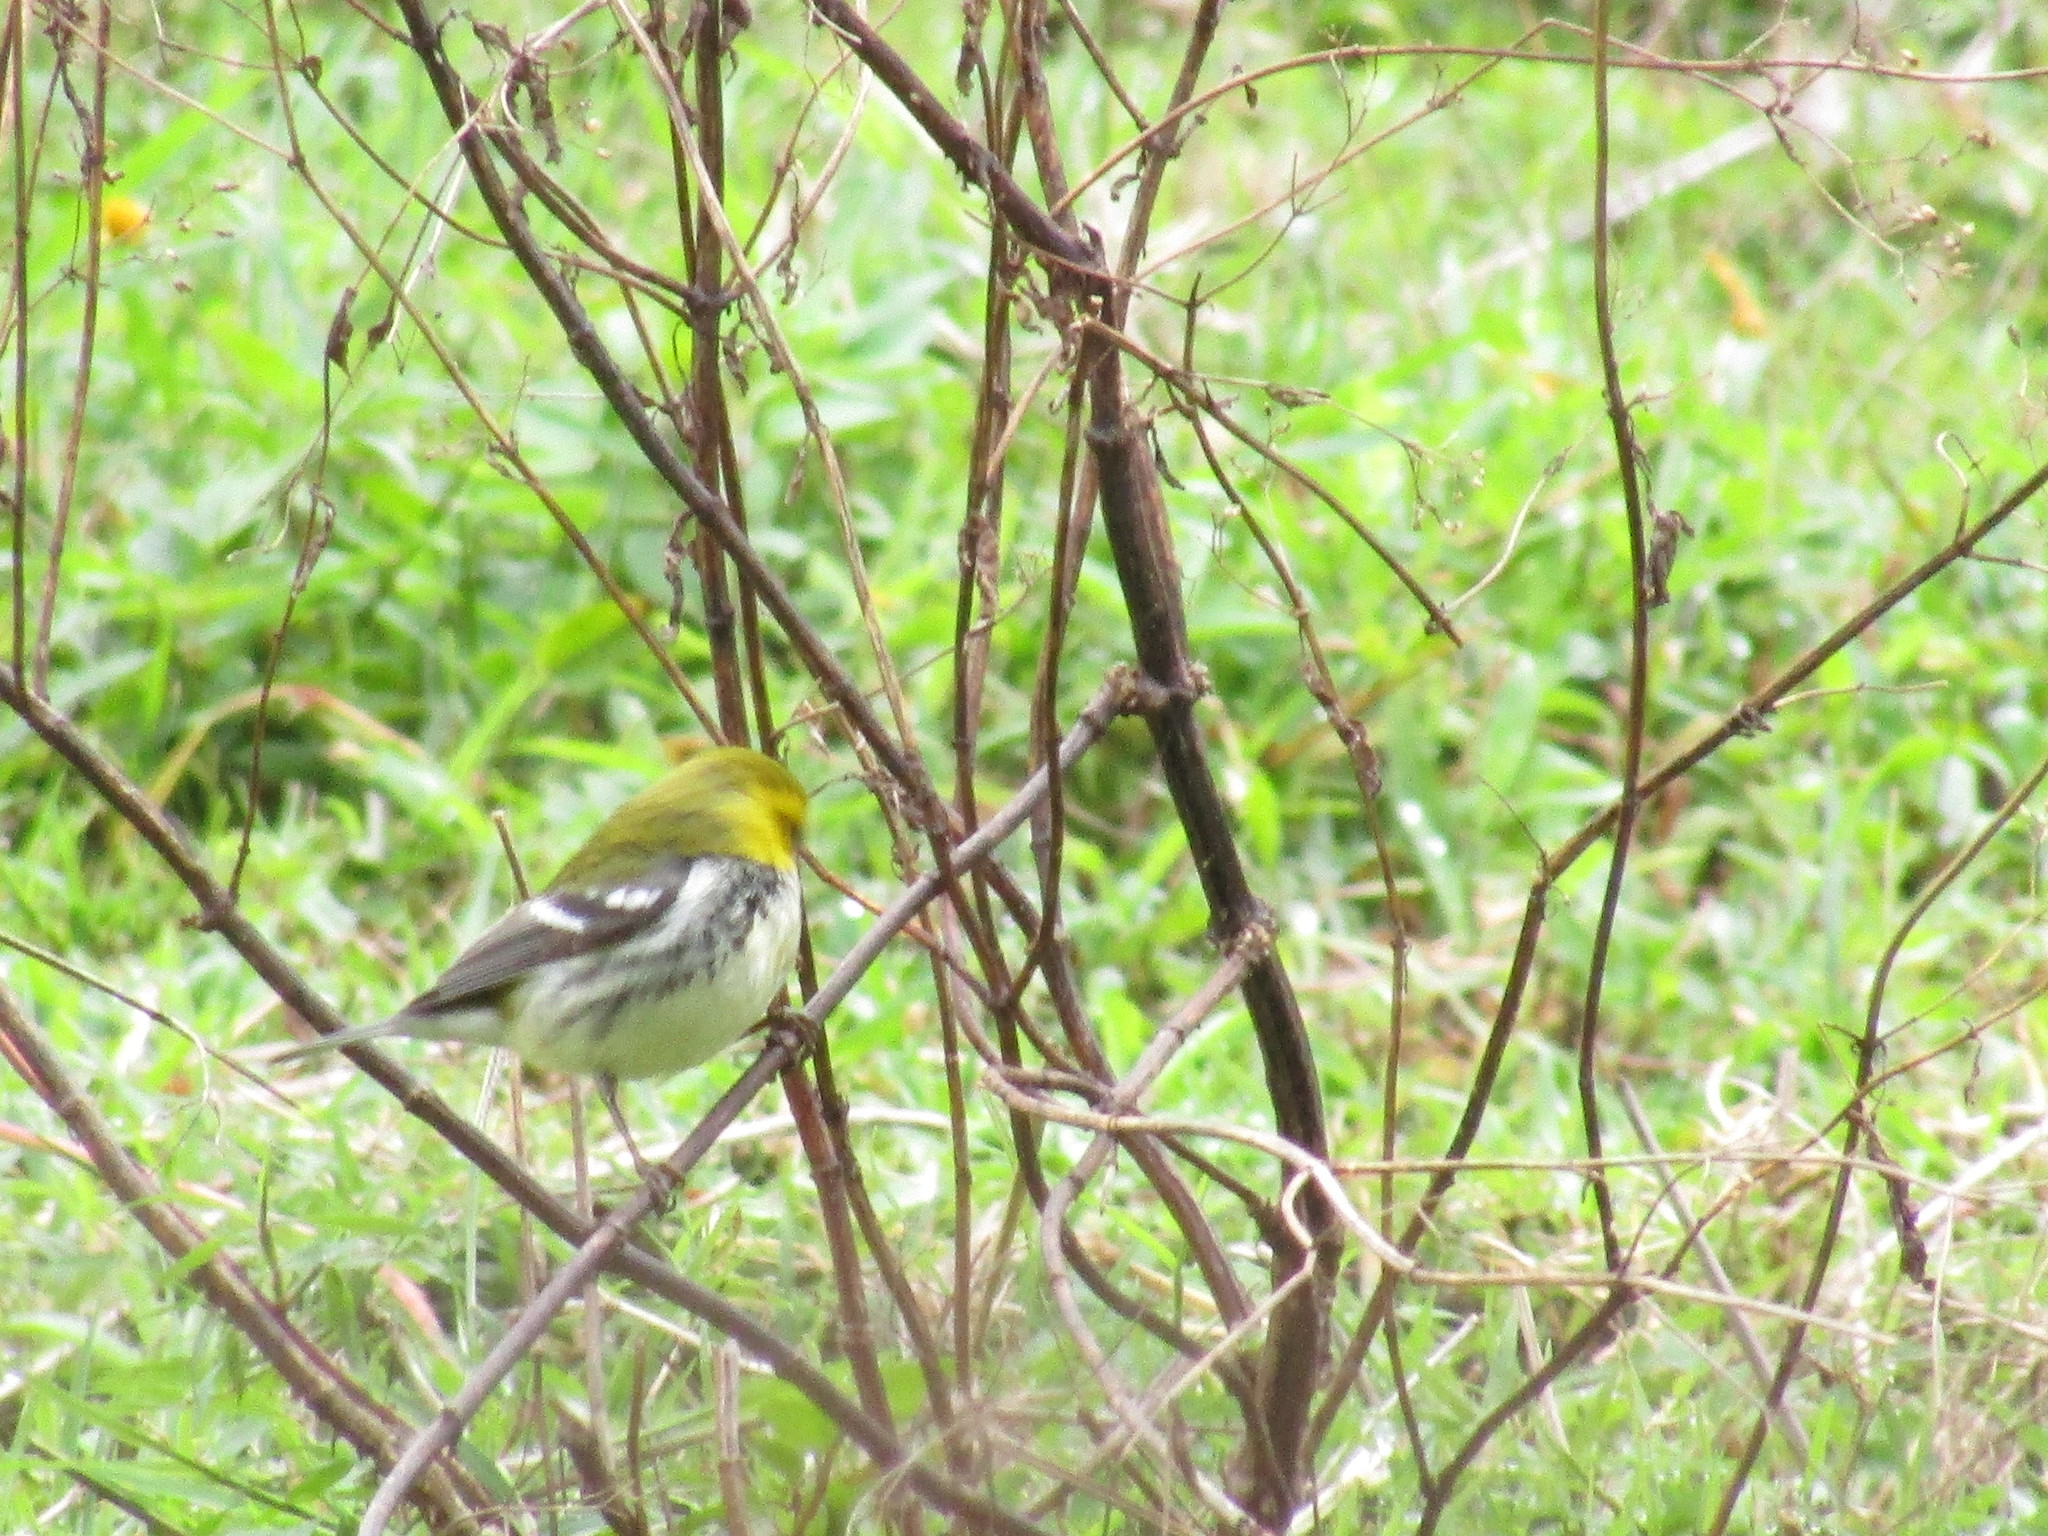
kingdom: Animalia
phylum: Chordata
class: Aves
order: Passeriformes
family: Parulidae
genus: Setophaga
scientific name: Setophaga virens
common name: Black-throated green warbler
